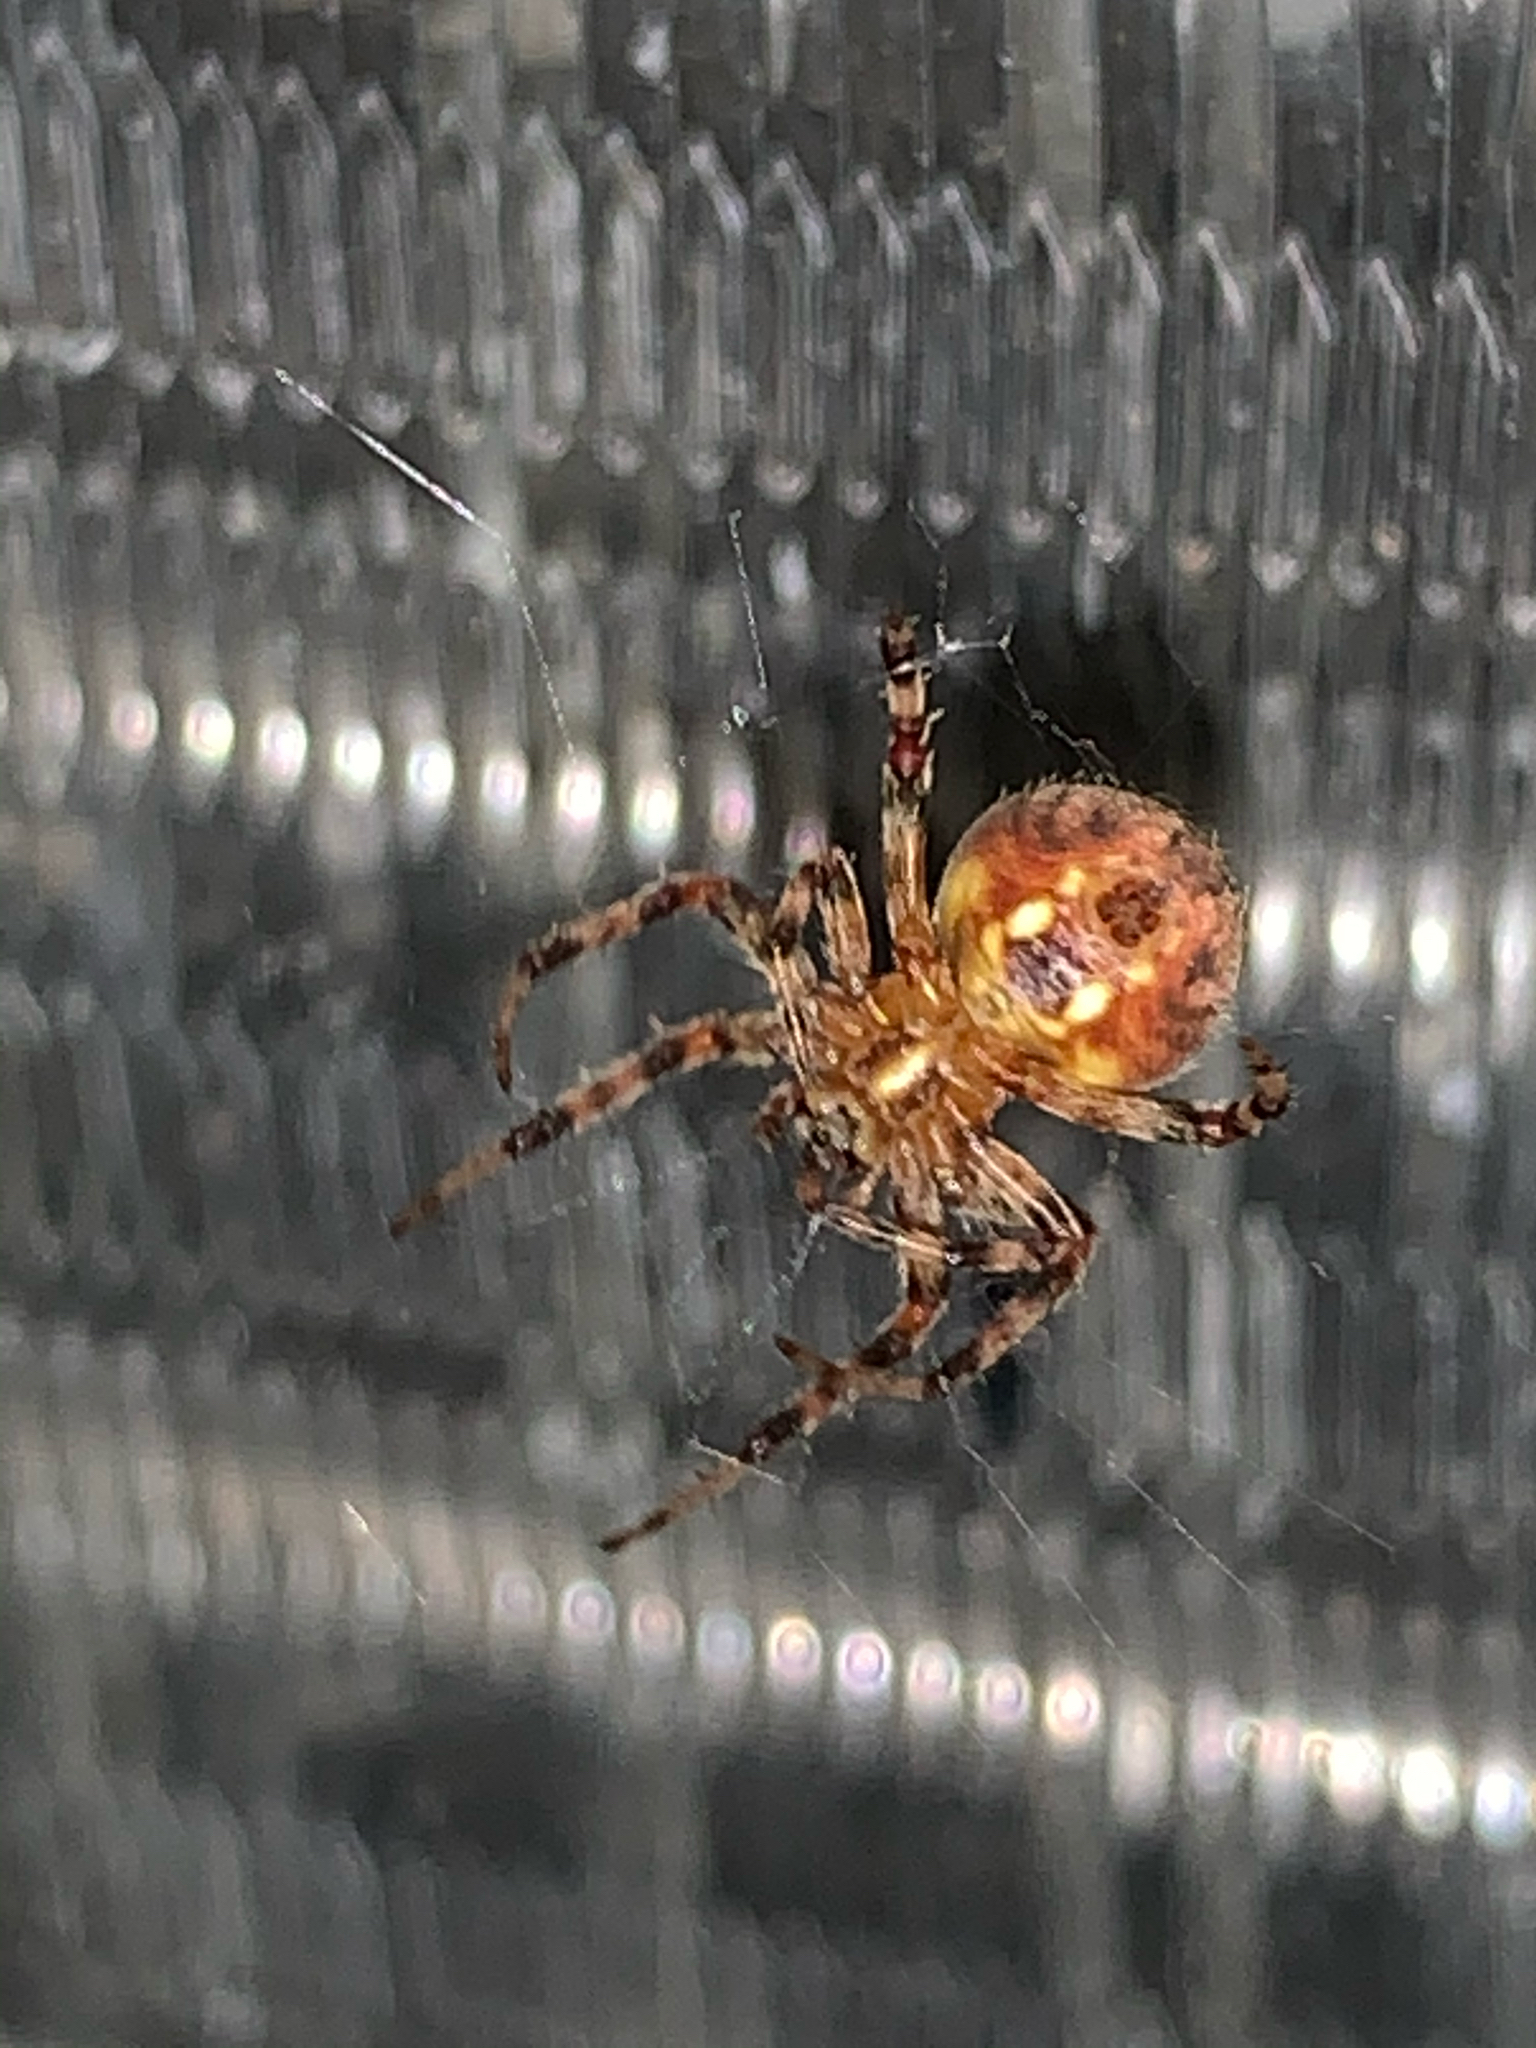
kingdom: Animalia
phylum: Arthropoda
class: Arachnida
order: Araneae
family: Araneidae
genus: Neoscona
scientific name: Neoscona
